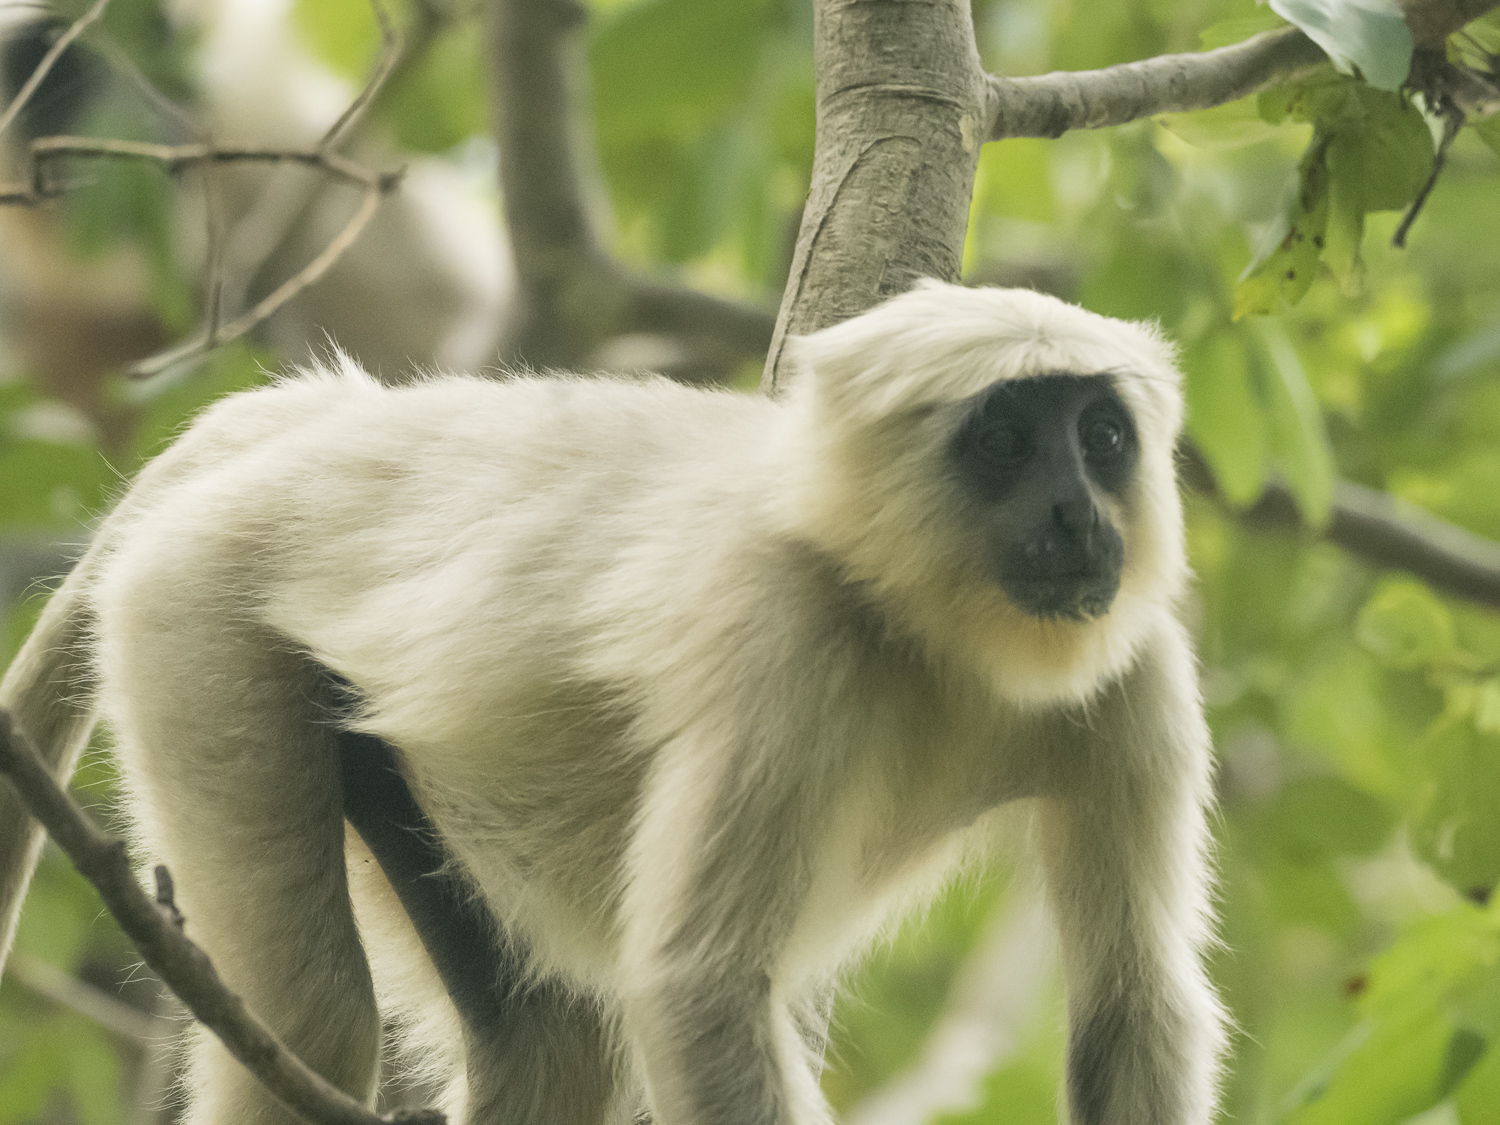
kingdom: Animalia
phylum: Chordata
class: Mammalia
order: Primates
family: Cercopithecidae
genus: Semnopithecus
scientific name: Semnopithecus schistaceus
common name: Nepal gray langur
